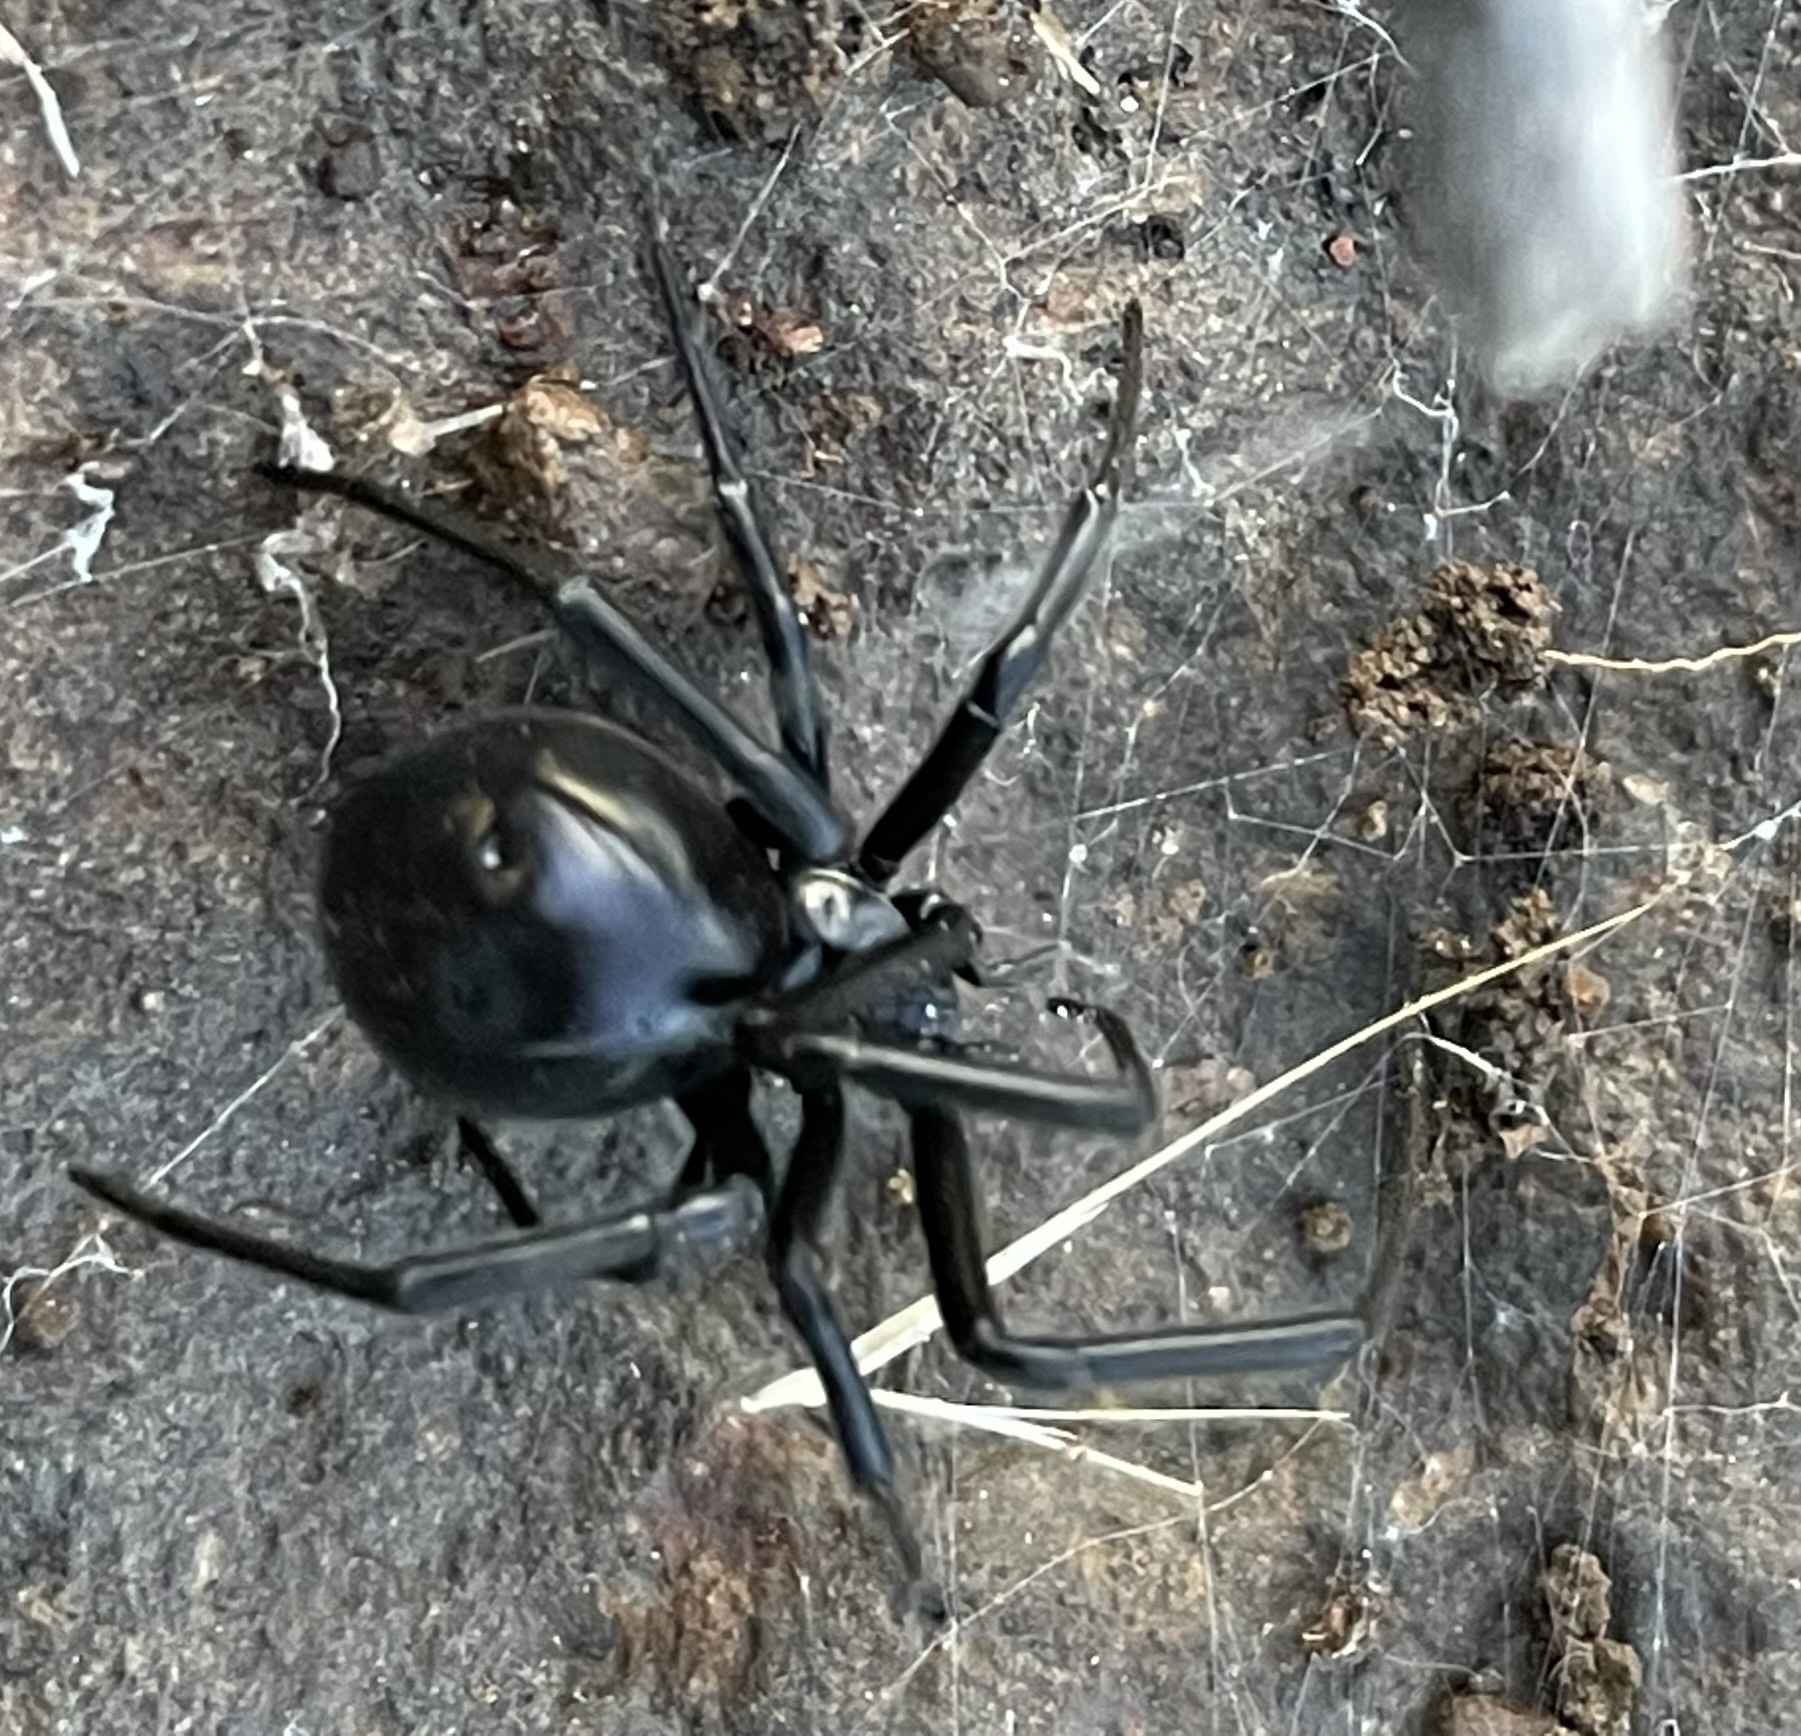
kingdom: Animalia
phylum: Arthropoda
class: Arachnida
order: Araneae
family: Theridiidae
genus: Latrodectus
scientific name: Latrodectus hesperus
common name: Western black widow
